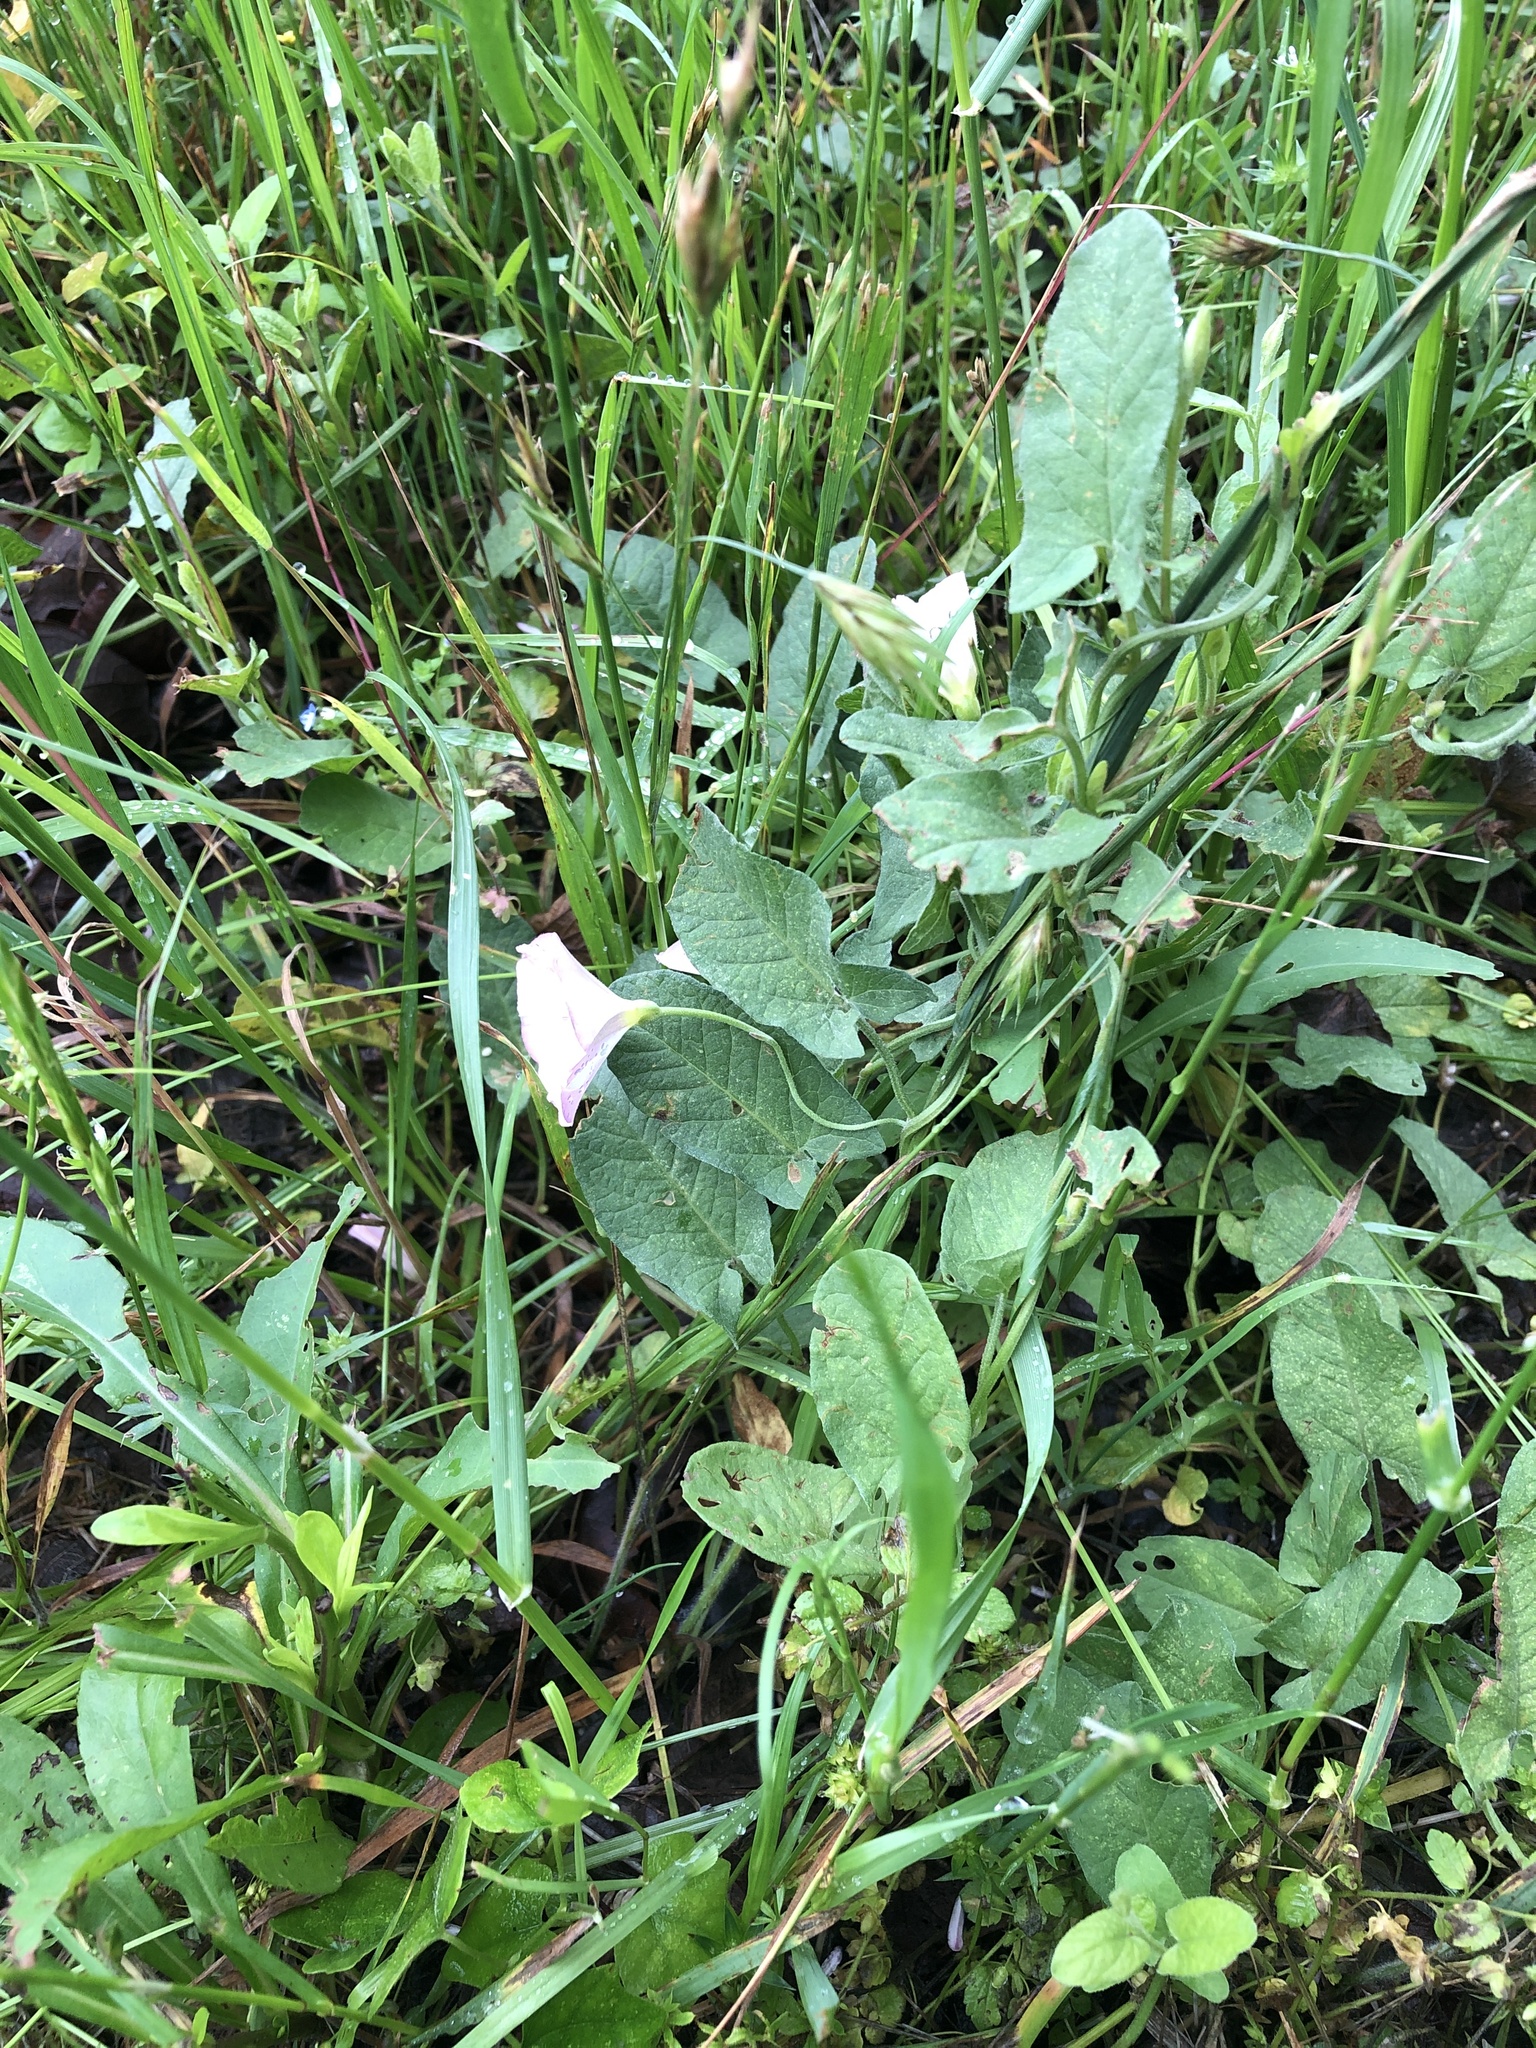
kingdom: Plantae
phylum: Tracheophyta
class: Magnoliopsida
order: Solanales
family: Convolvulaceae
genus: Convolvulus
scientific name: Convolvulus arvensis
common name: Field bindweed
